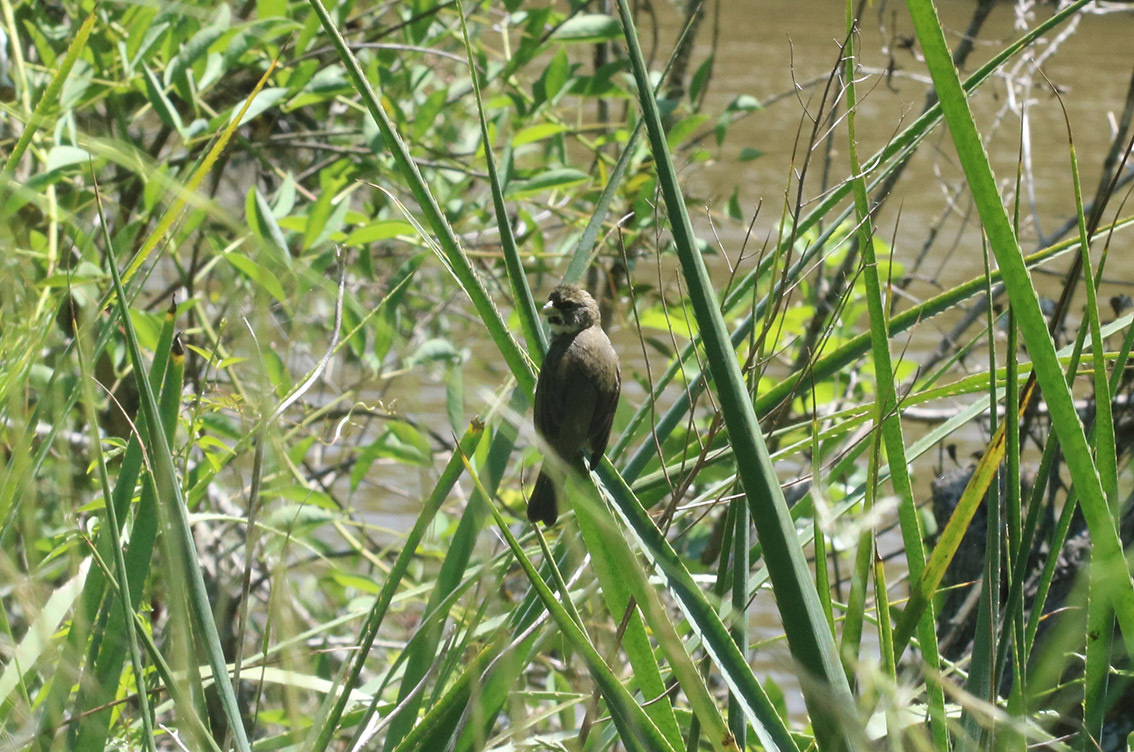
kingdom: Animalia
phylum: Chordata
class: Aves
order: Passeriformes
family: Thraupidae
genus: Sporophila
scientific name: Sporophila caerulescens
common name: Double-collared seedeater
